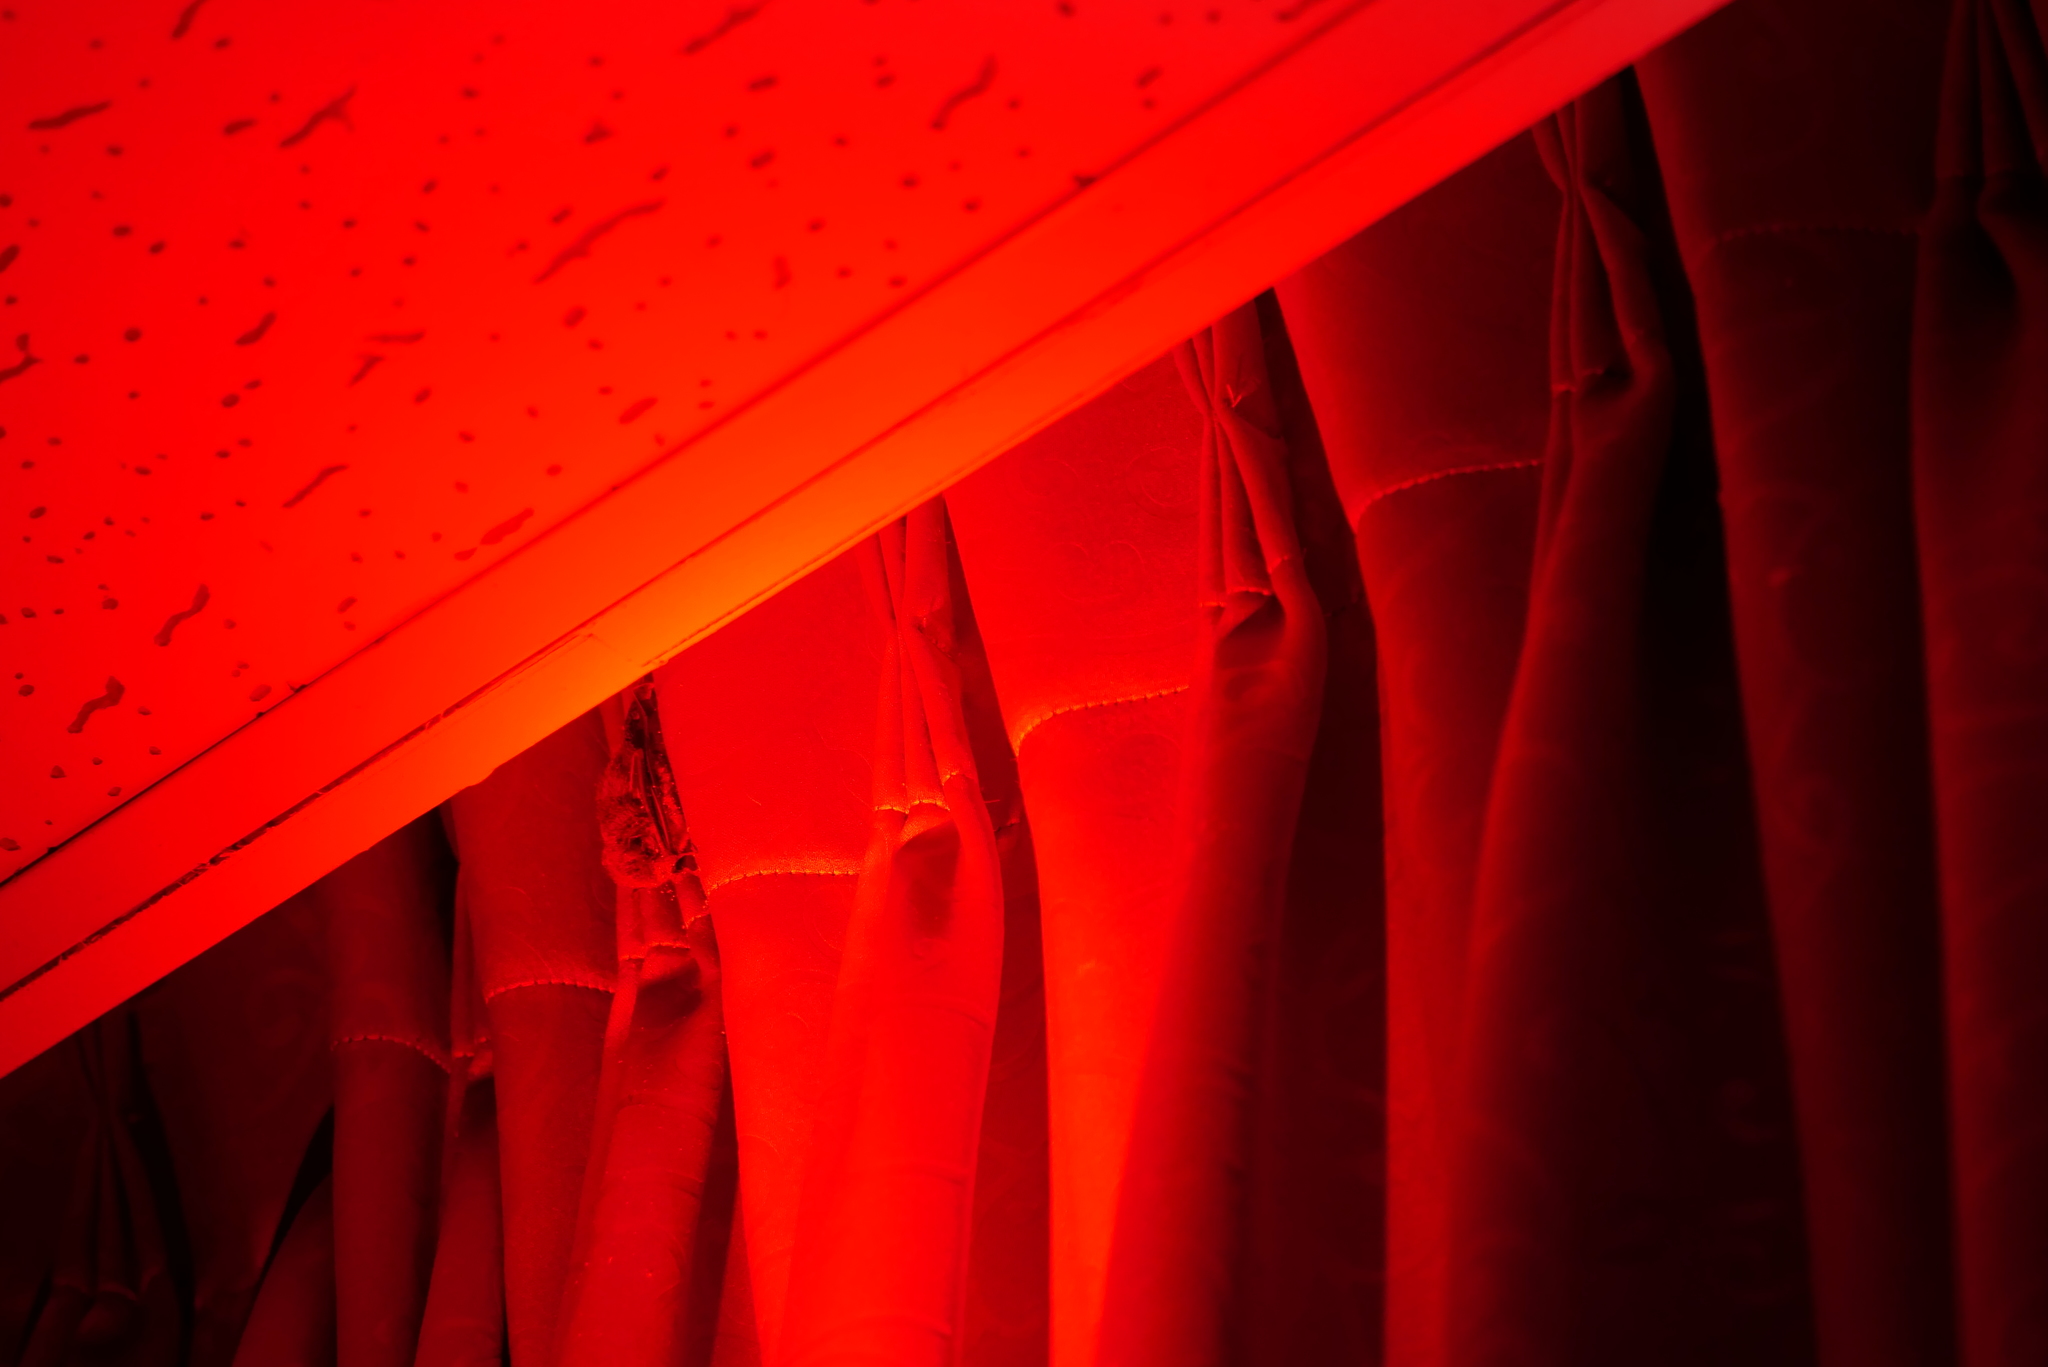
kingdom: Animalia
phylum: Chordata
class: Mammalia
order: Chiroptera
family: Vespertilionidae
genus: Pipistrellus
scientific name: Pipistrellus abramus
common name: Japanese pipistrelle
